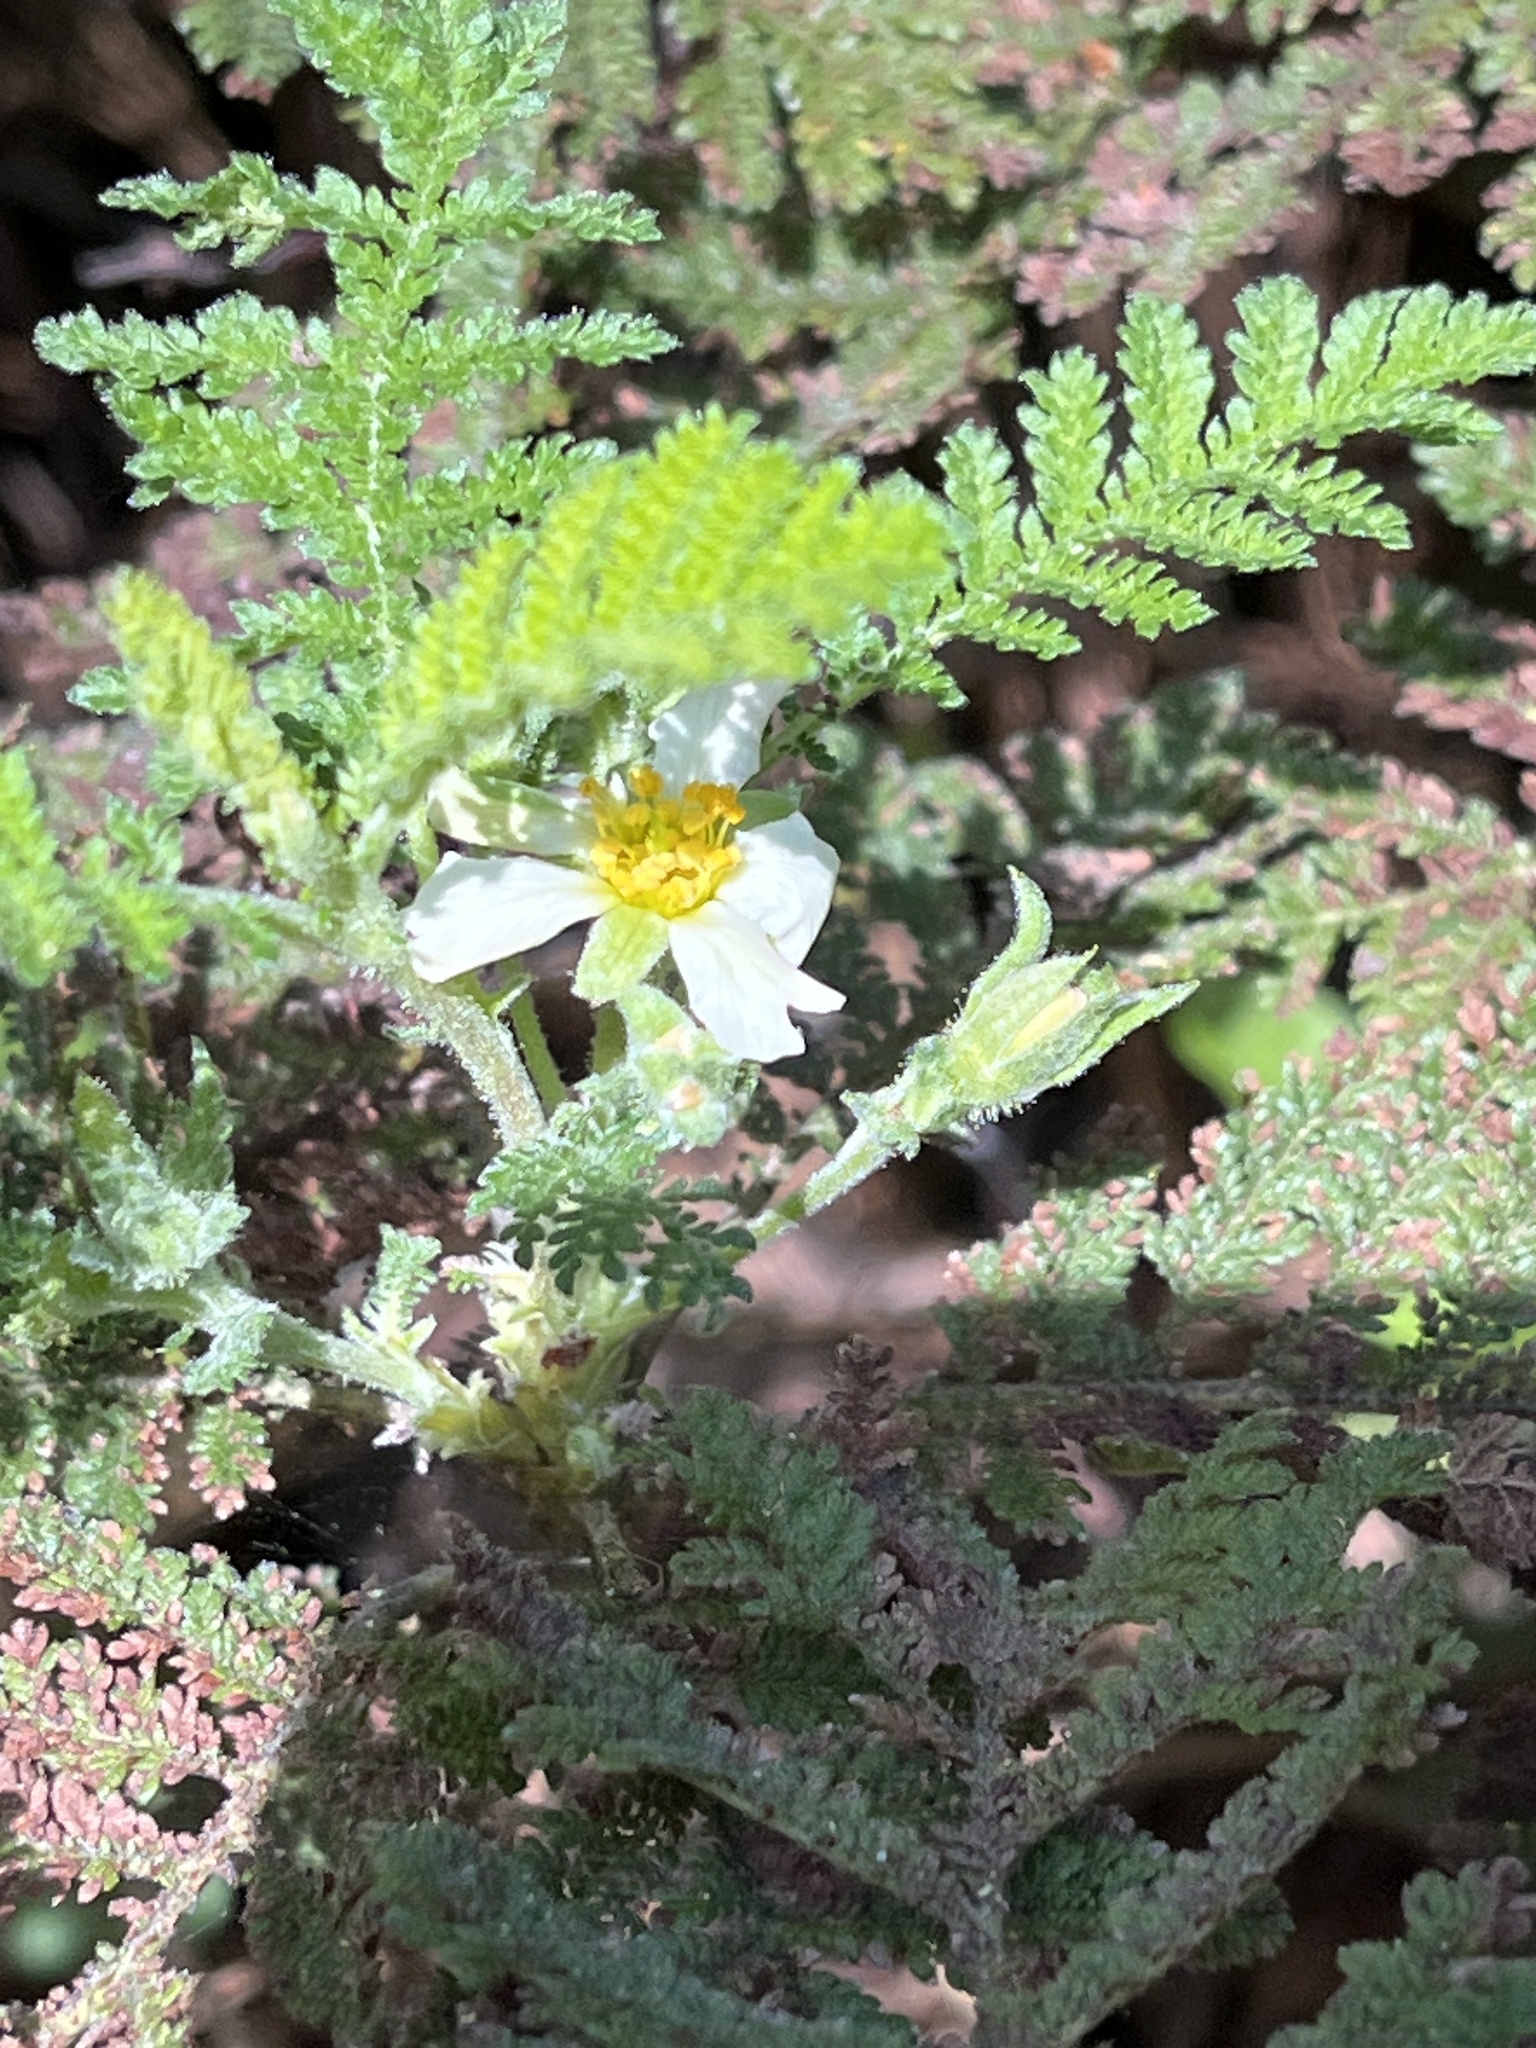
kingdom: Plantae
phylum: Tracheophyta
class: Magnoliopsida
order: Rosales
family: Rosaceae
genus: Chamaebatia
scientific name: Chamaebatia foliolosa
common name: Mountain misery
